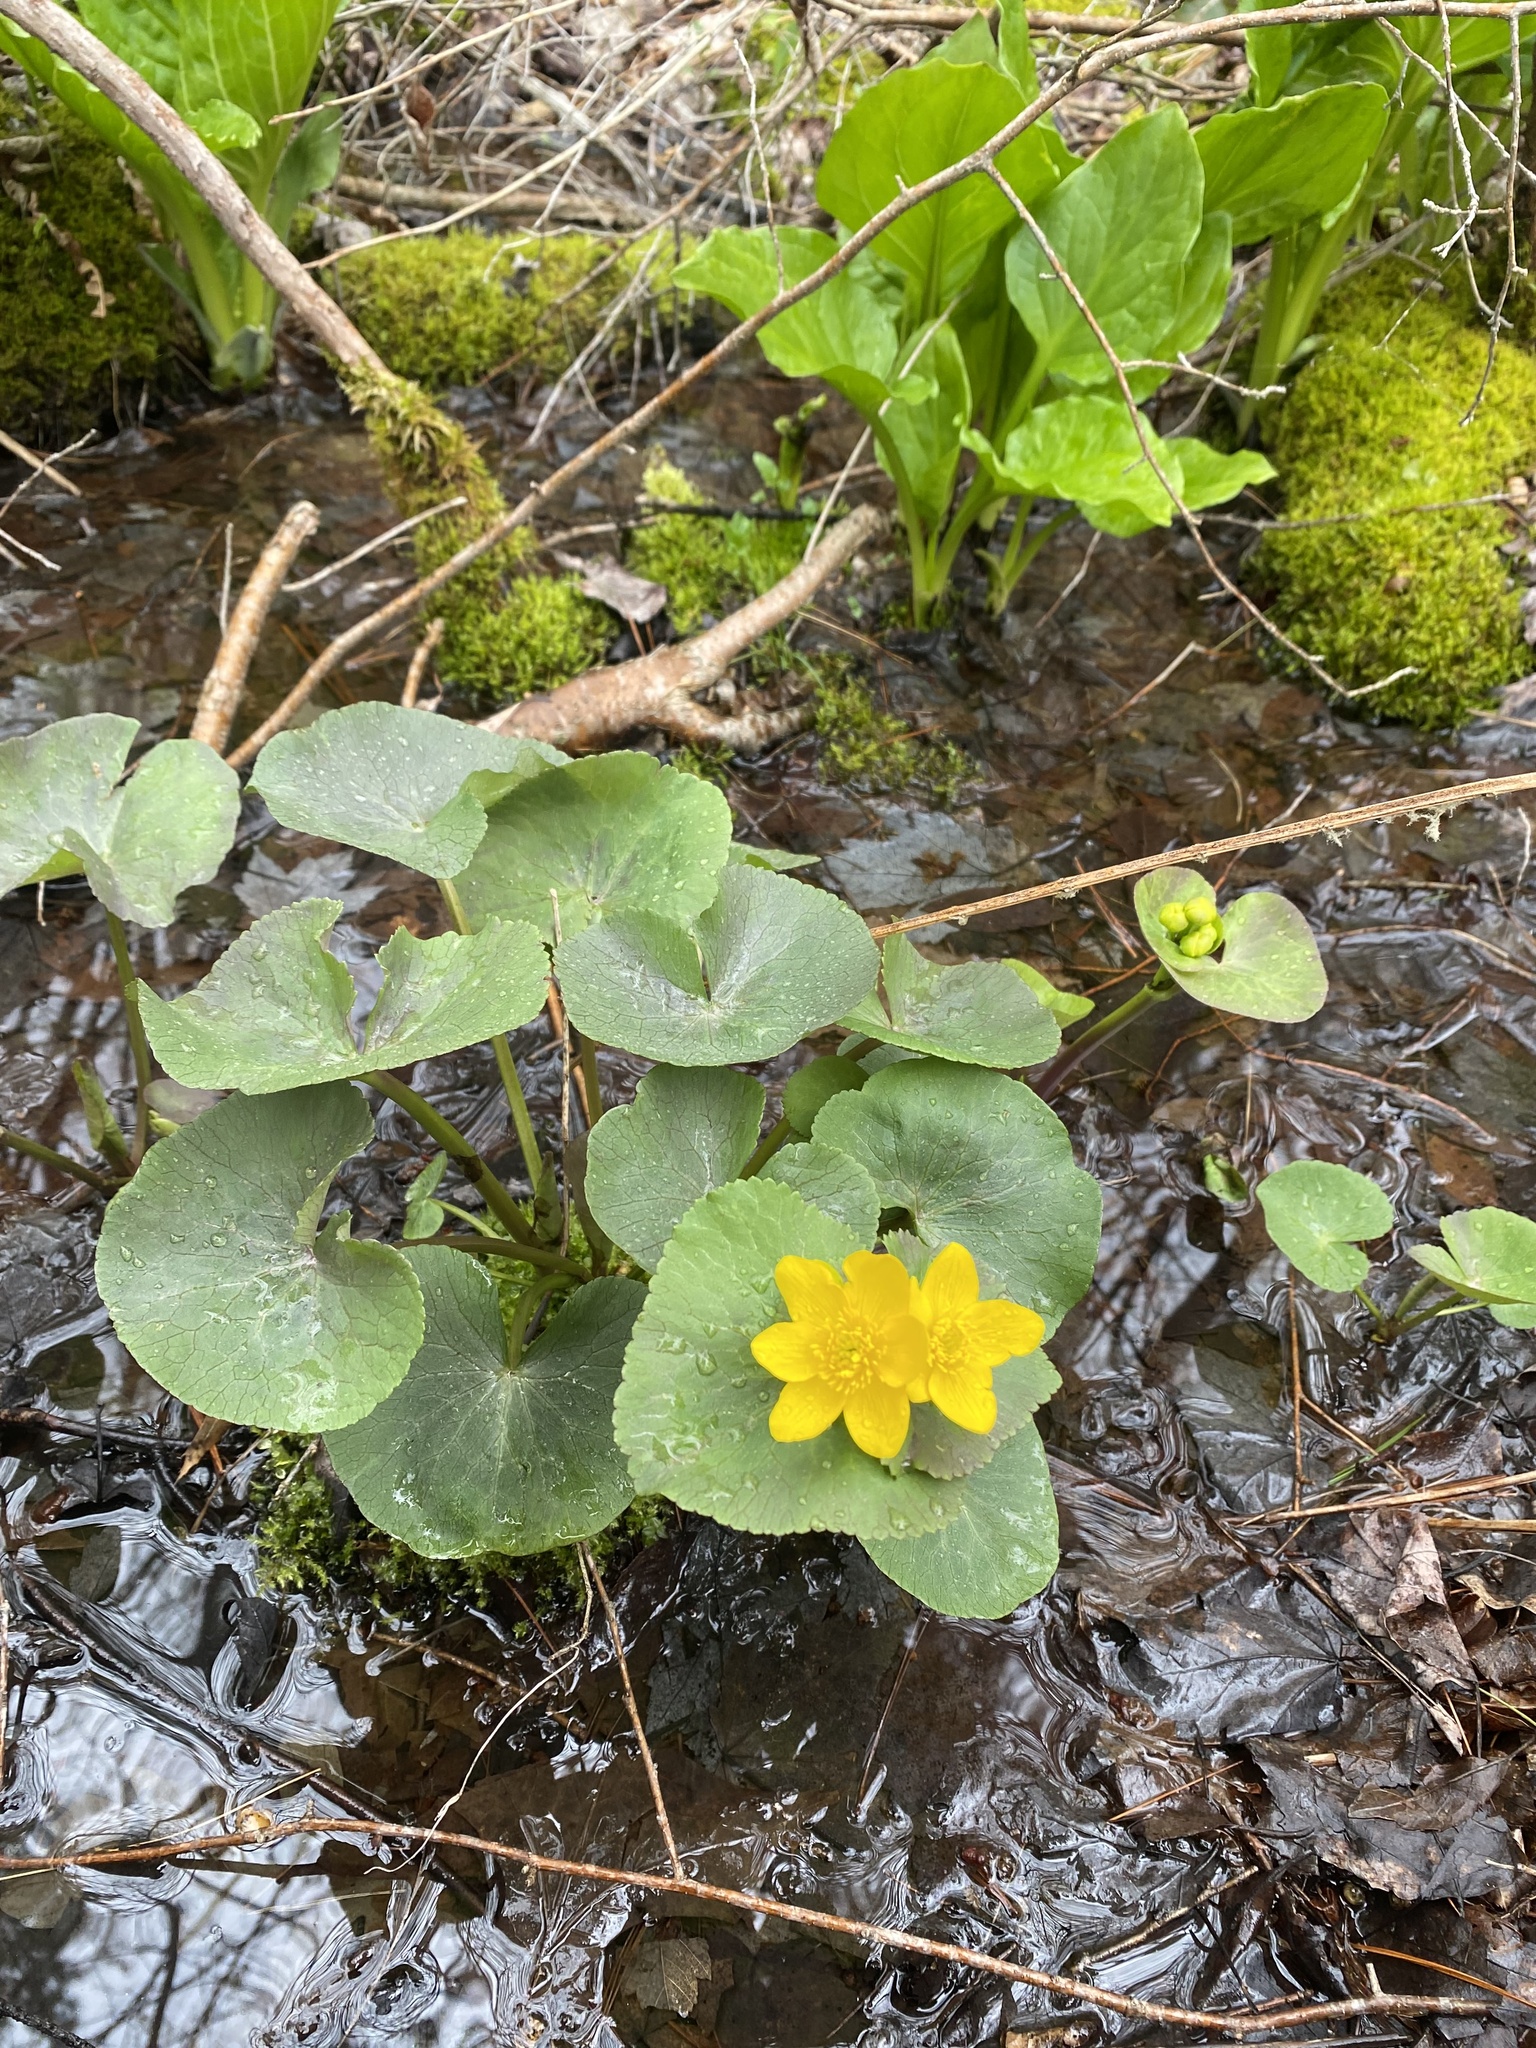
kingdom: Plantae
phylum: Tracheophyta
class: Magnoliopsida
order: Ranunculales
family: Ranunculaceae
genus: Caltha
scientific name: Caltha palustris
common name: Marsh marigold
